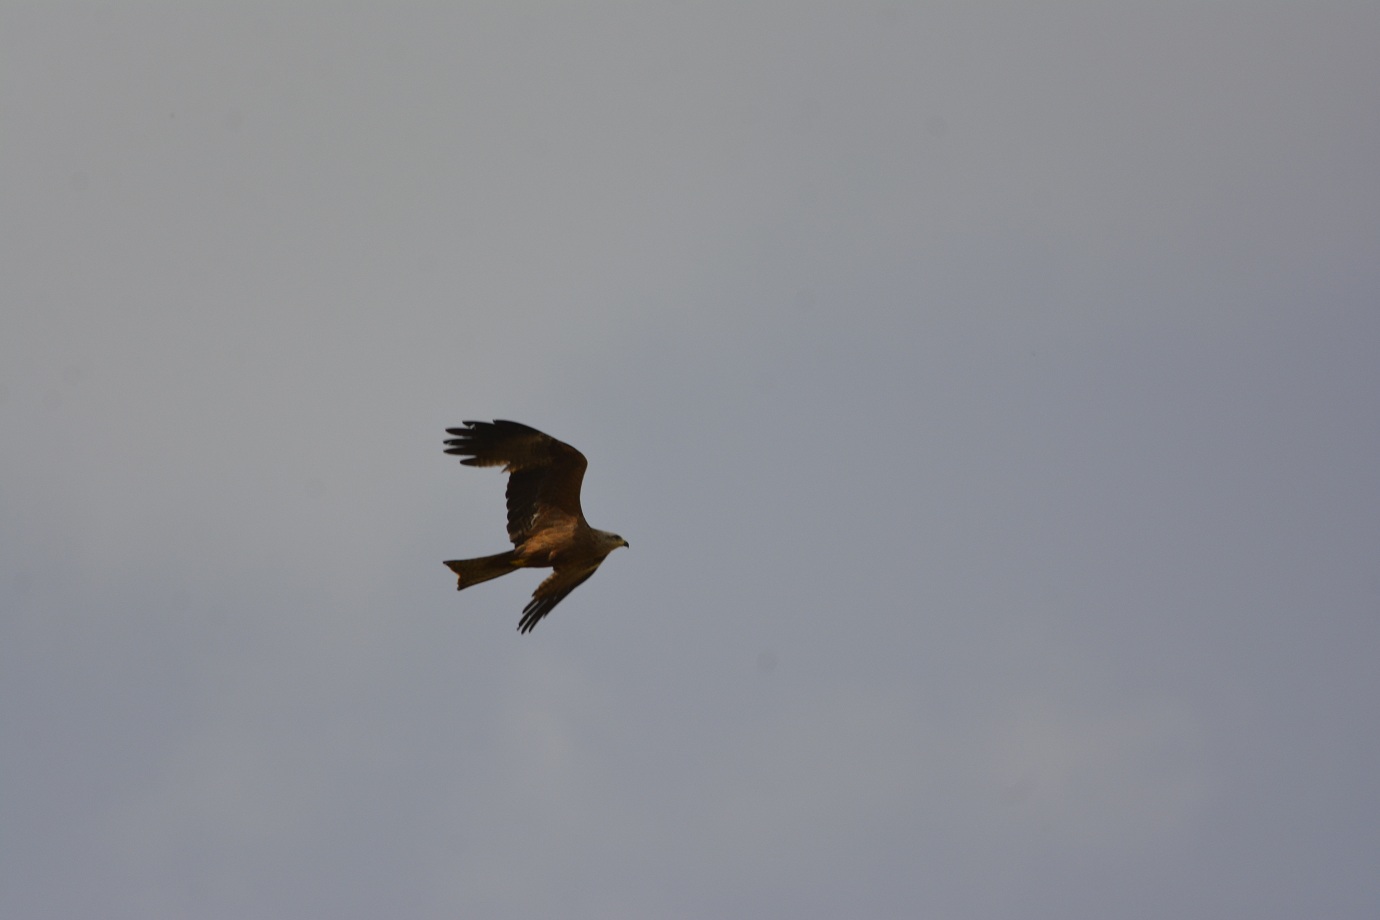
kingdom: Animalia
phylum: Chordata
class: Aves
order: Accipitriformes
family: Accipitridae
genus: Milvus
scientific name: Milvus migrans
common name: Black kite
